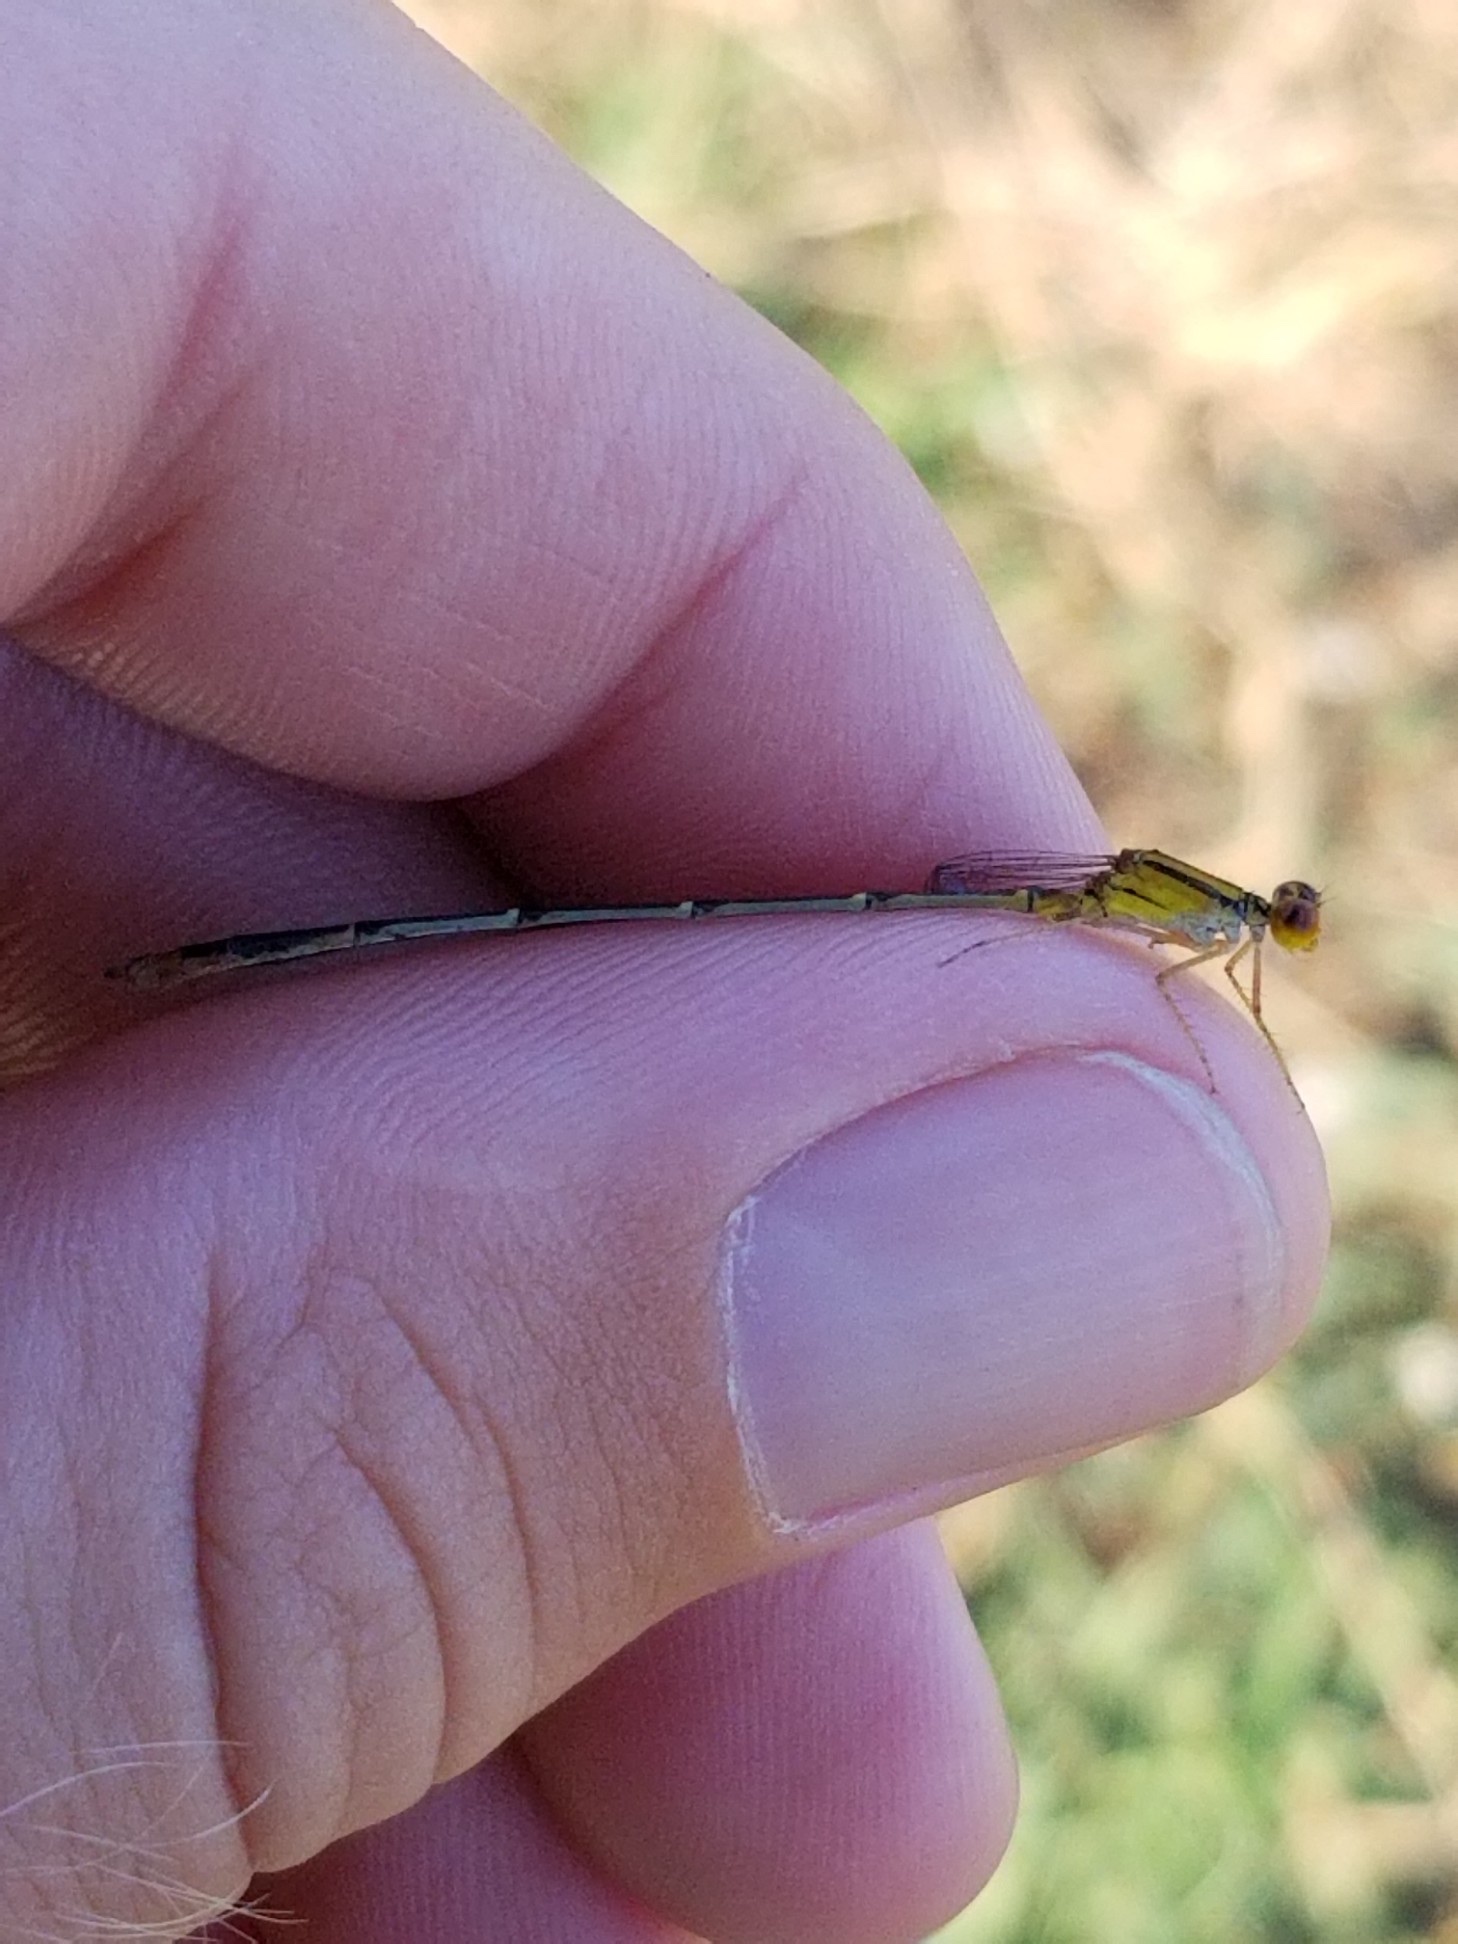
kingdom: Animalia
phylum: Arthropoda
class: Insecta
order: Odonata
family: Coenagrionidae
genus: Enallagma
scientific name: Enallagma signatum
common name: Orange bluet
